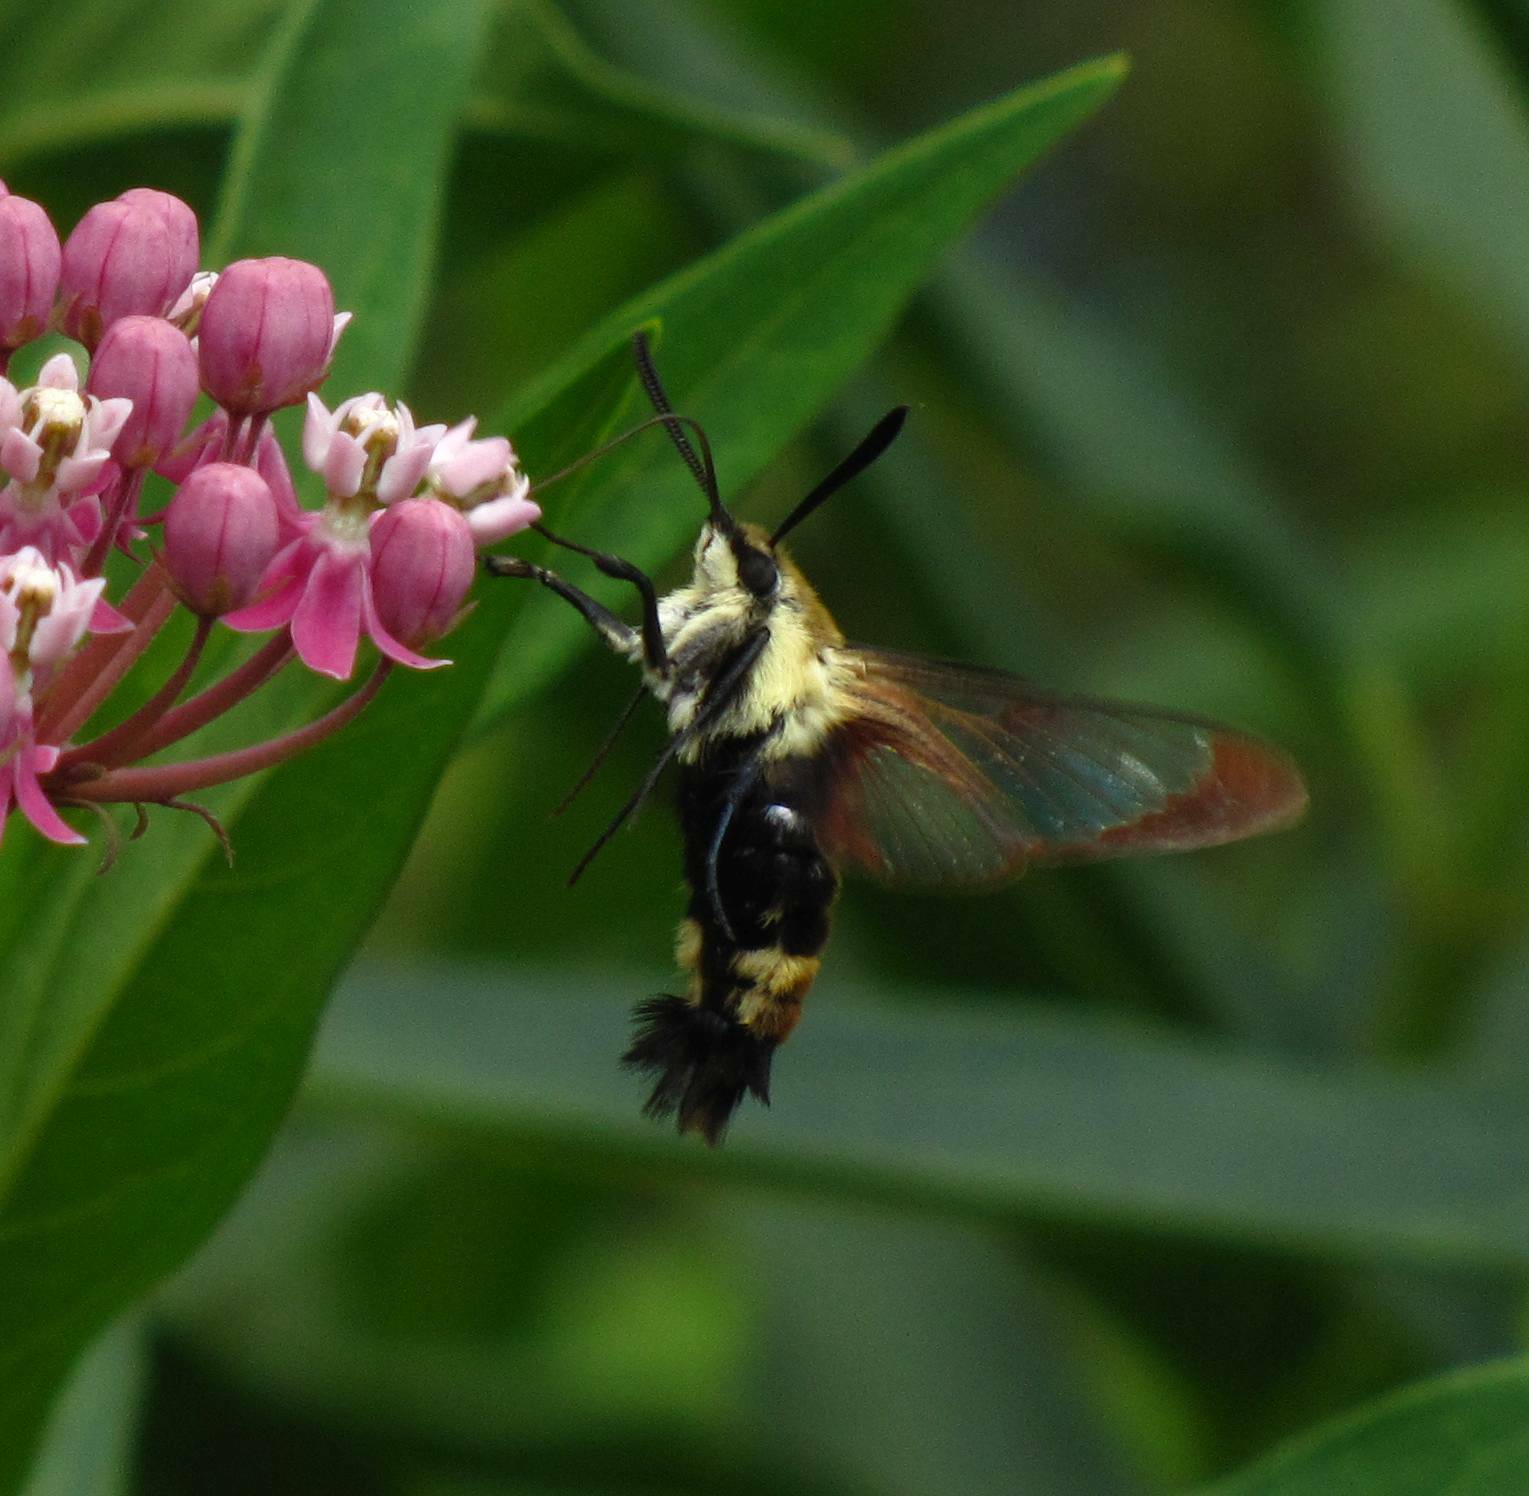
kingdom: Animalia
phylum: Arthropoda
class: Insecta
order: Lepidoptera
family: Sphingidae
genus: Hemaris
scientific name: Hemaris diffinis
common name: Bumblebee moth
